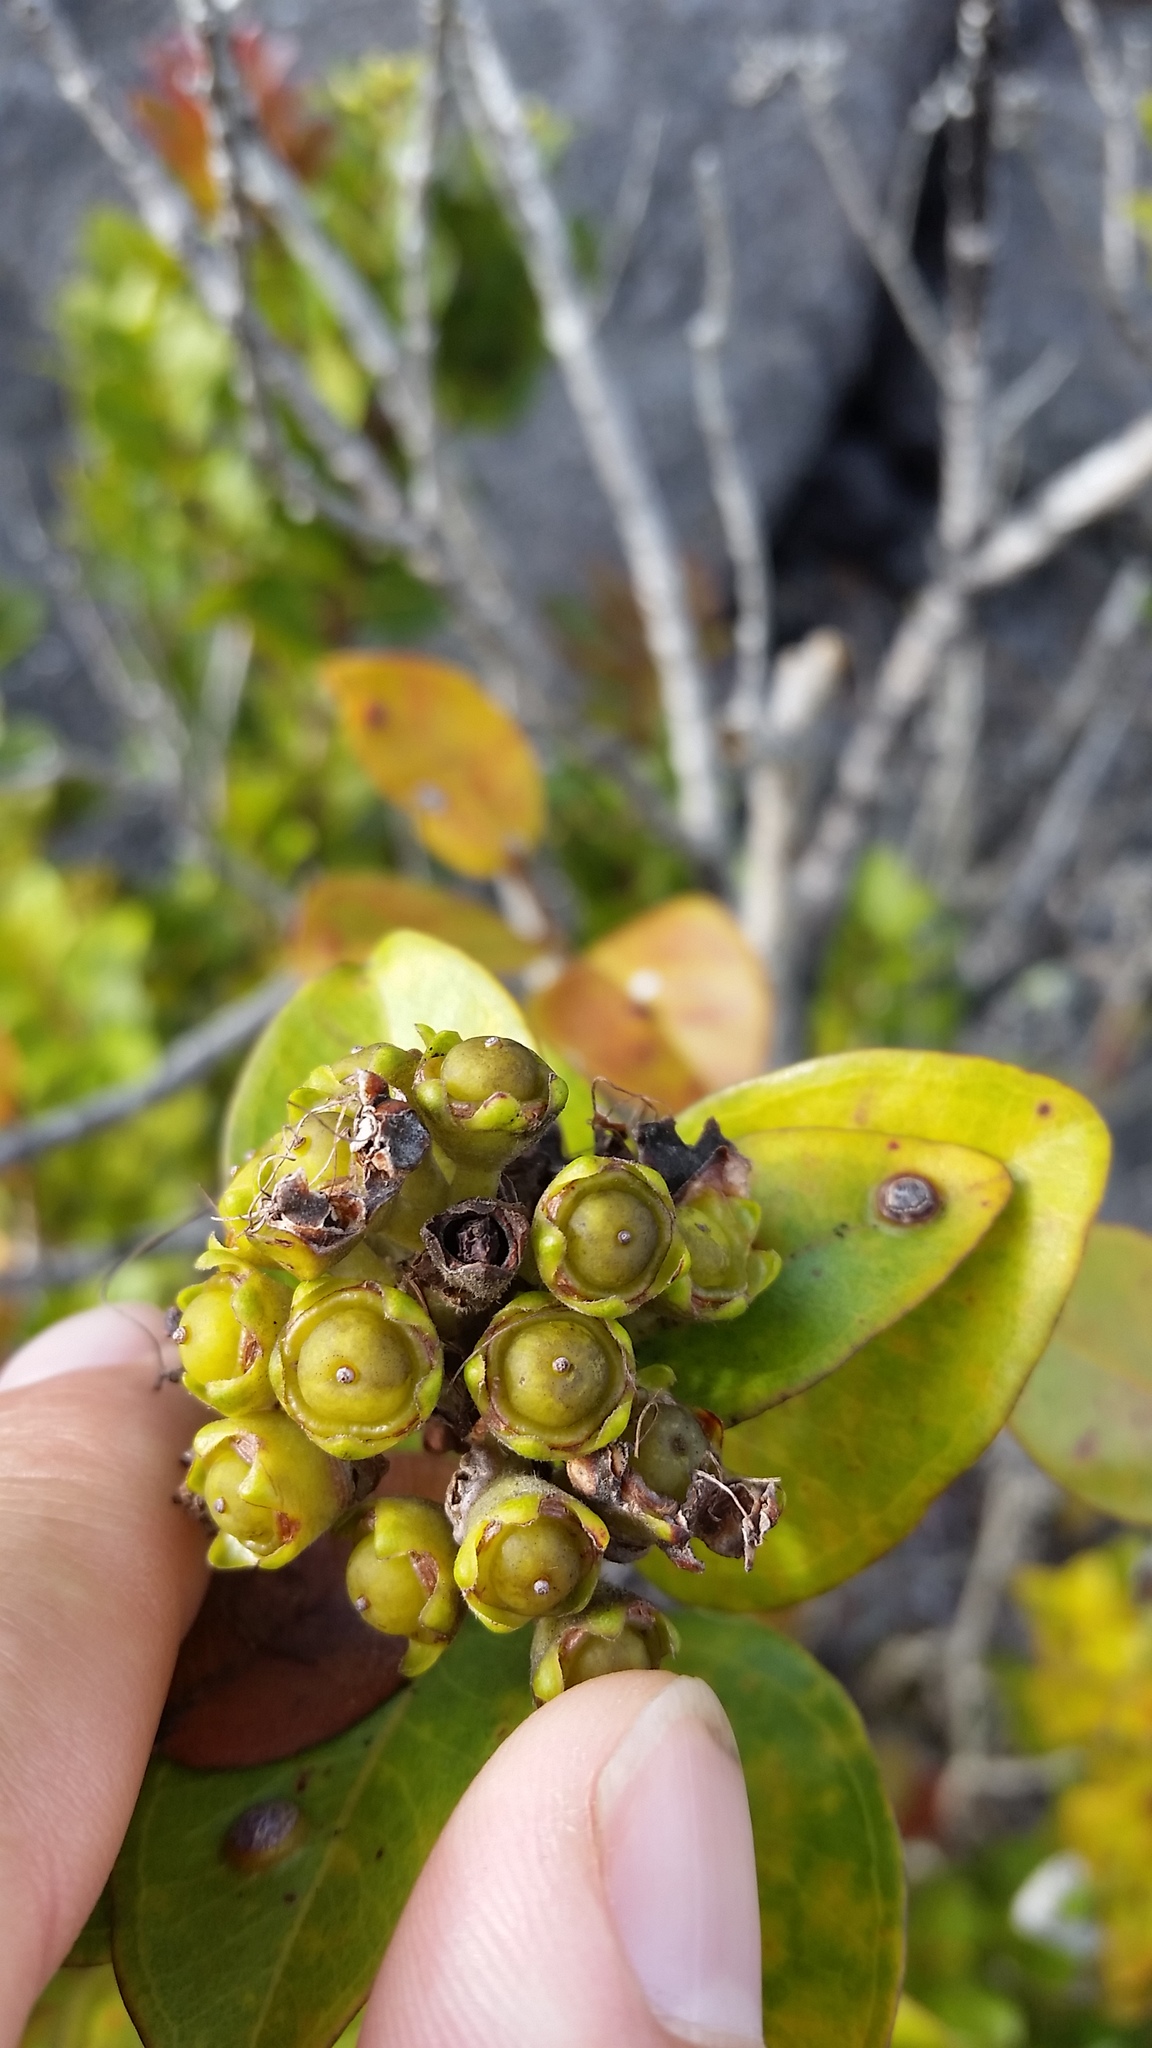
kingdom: Plantae
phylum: Tracheophyta
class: Magnoliopsida
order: Myrtales
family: Myrtaceae
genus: Metrosideros
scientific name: Metrosideros polymorpha
